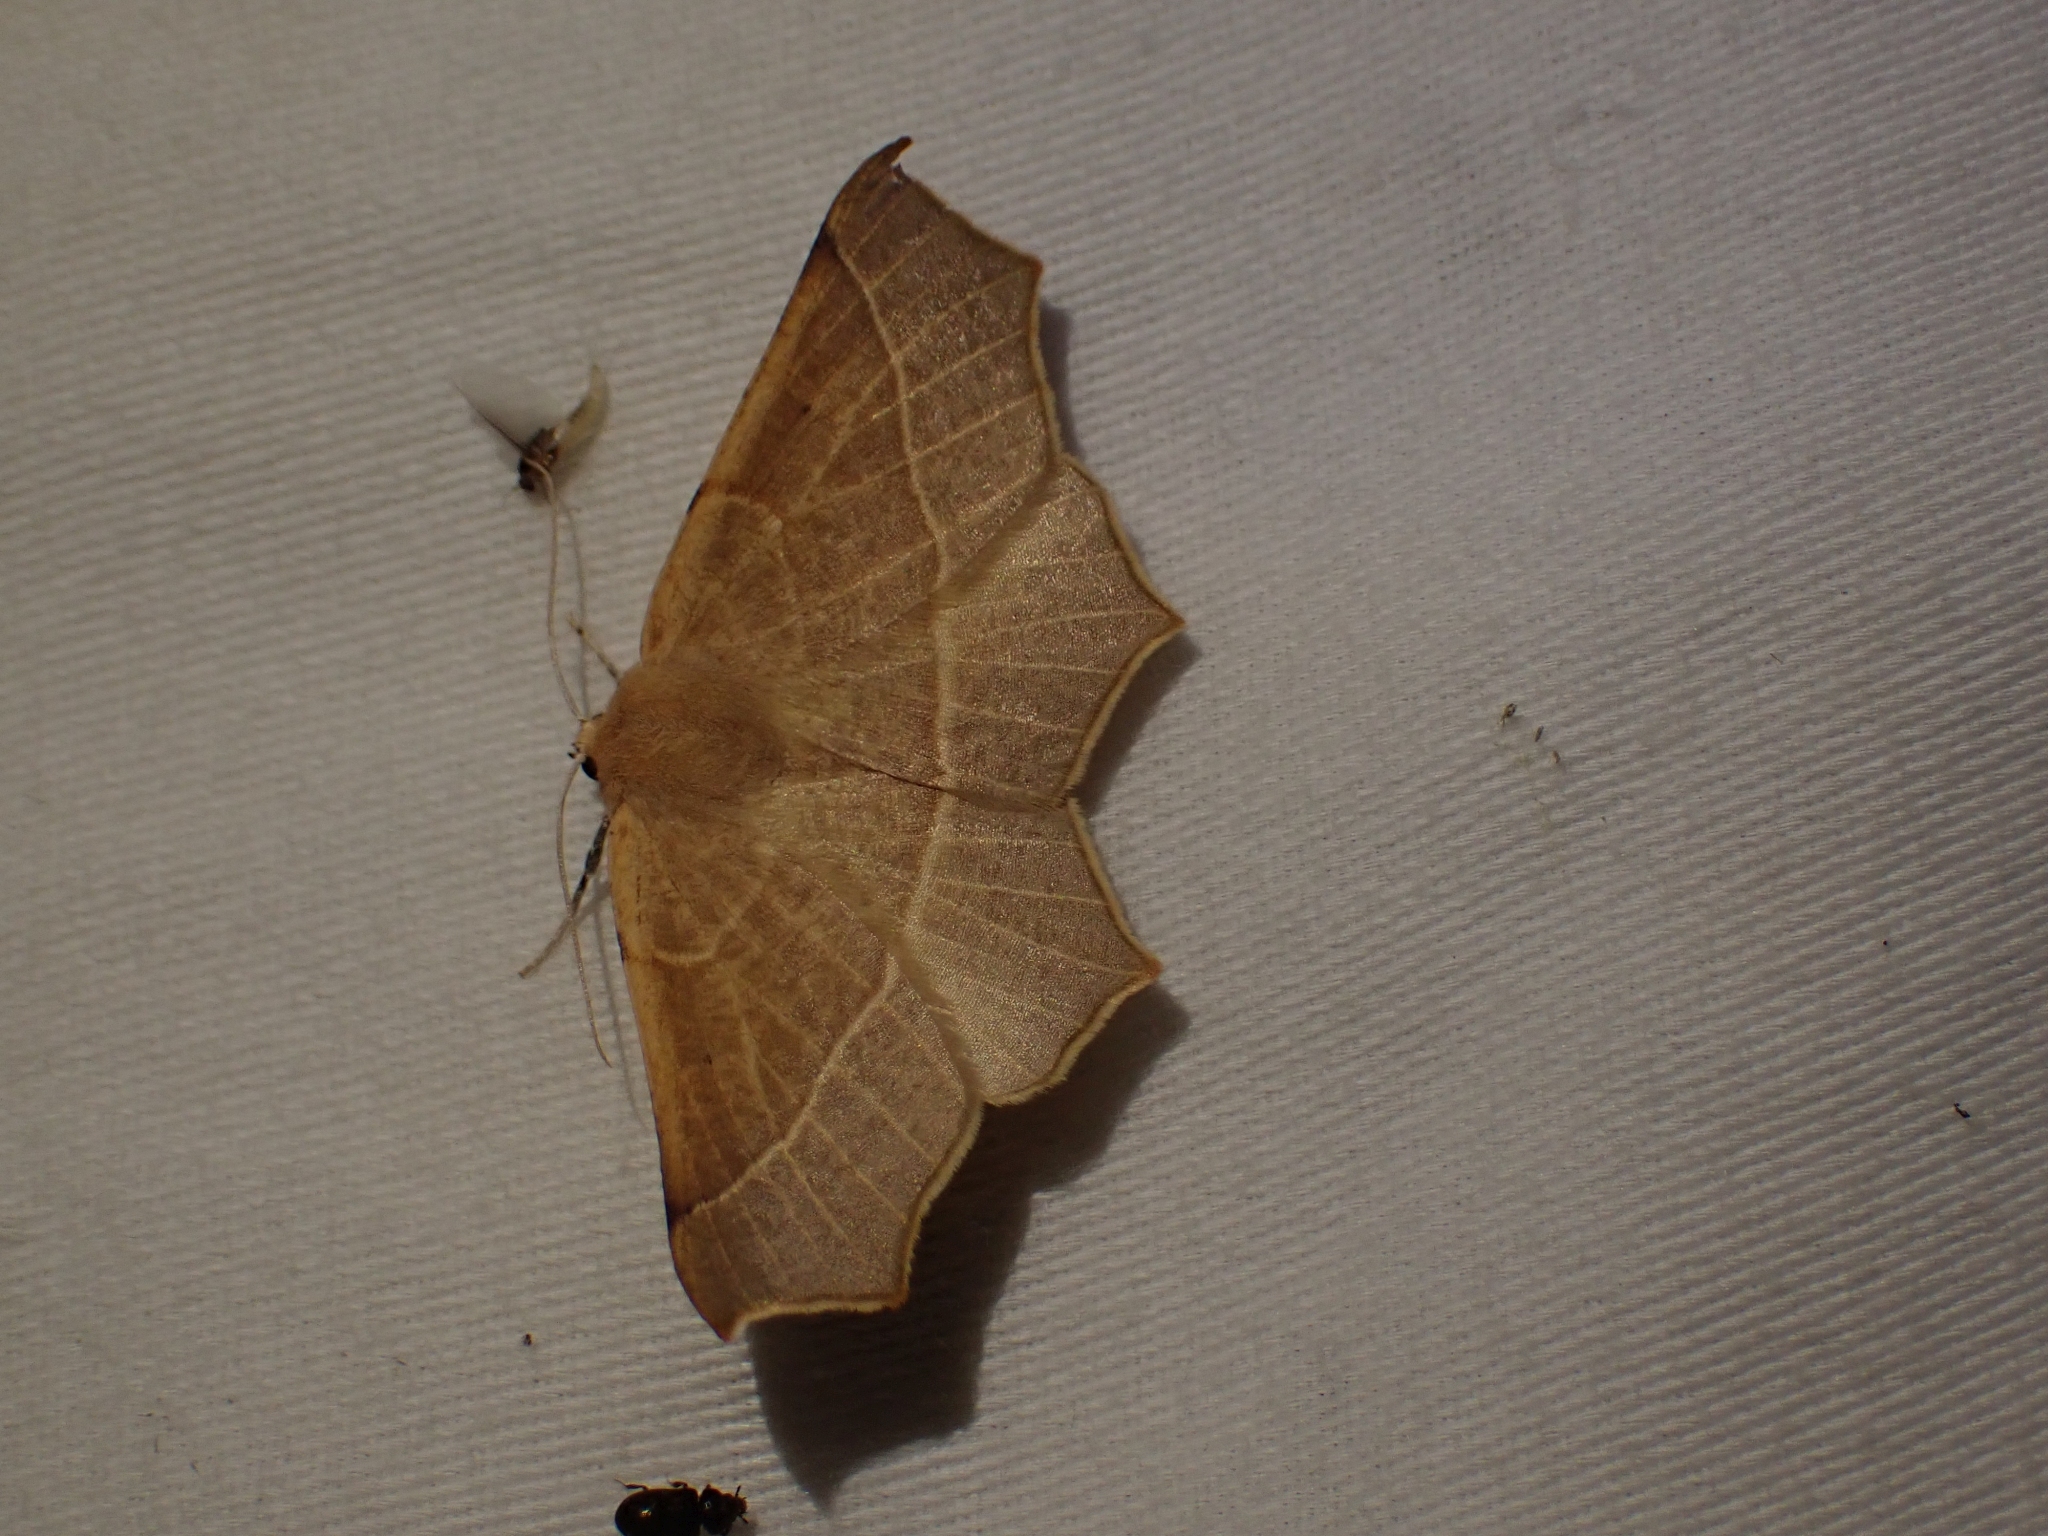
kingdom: Animalia
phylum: Arthropoda
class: Insecta
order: Lepidoptera
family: Geometridae
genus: Tetracis
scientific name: Tetracis cervinaria
